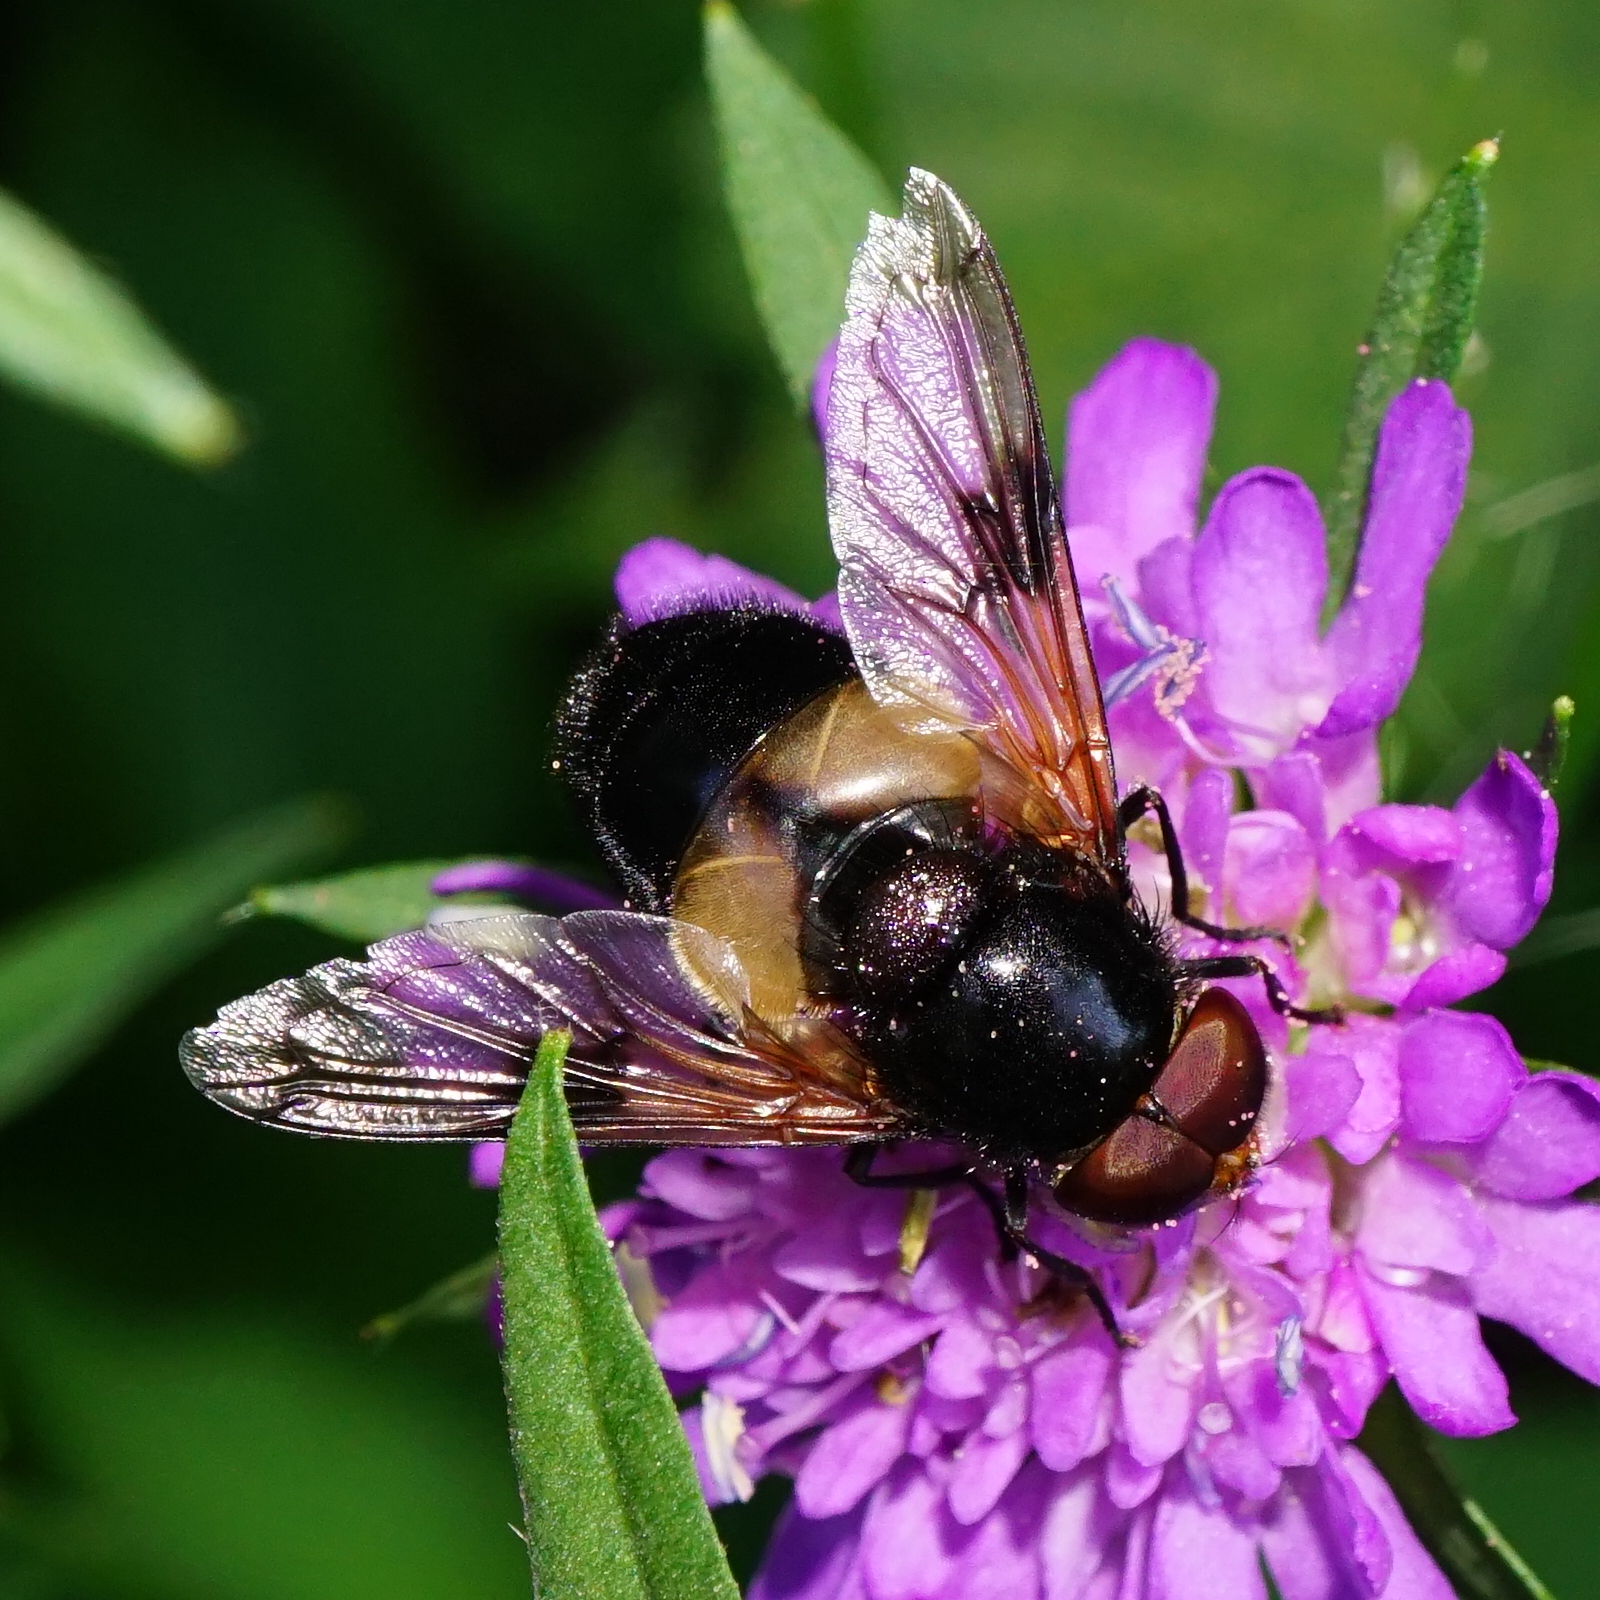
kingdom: Animalia
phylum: Arthropoda
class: Insecta
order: Diptera
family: Syrphidae
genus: Volucella
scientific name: Volucella pellucens
